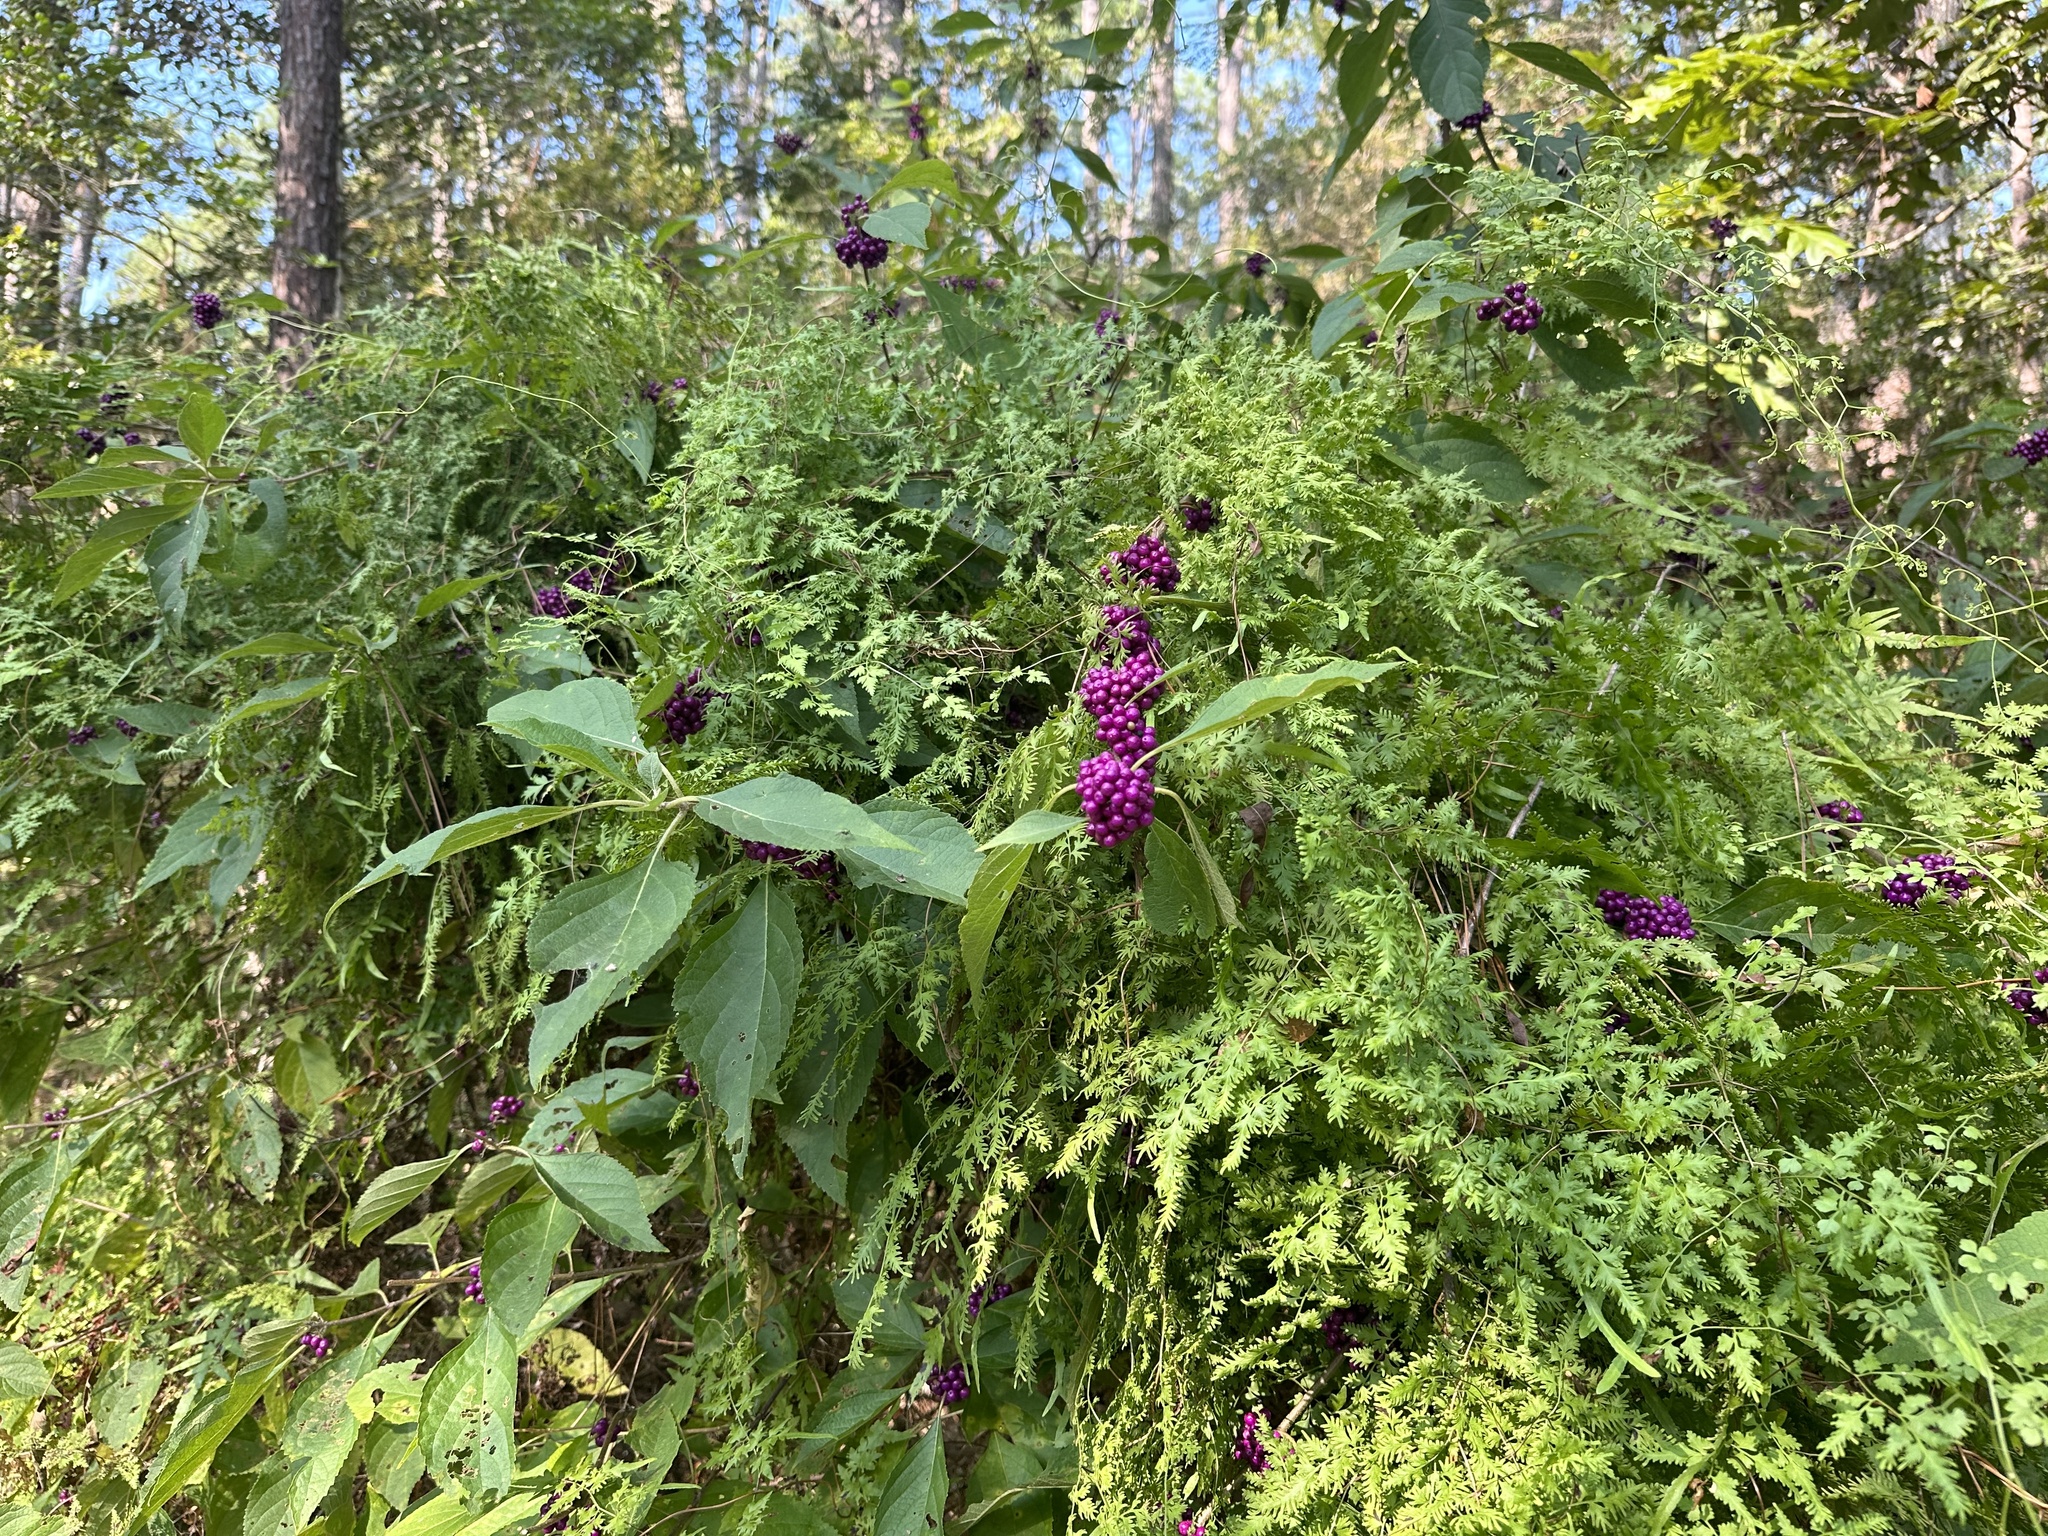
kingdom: Plantae
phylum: Tracheophyta
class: Magnoliopsida
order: Lamiales
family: Lamiaceae
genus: Callicarpa
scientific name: Callicarpa americana
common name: American beautyberry
